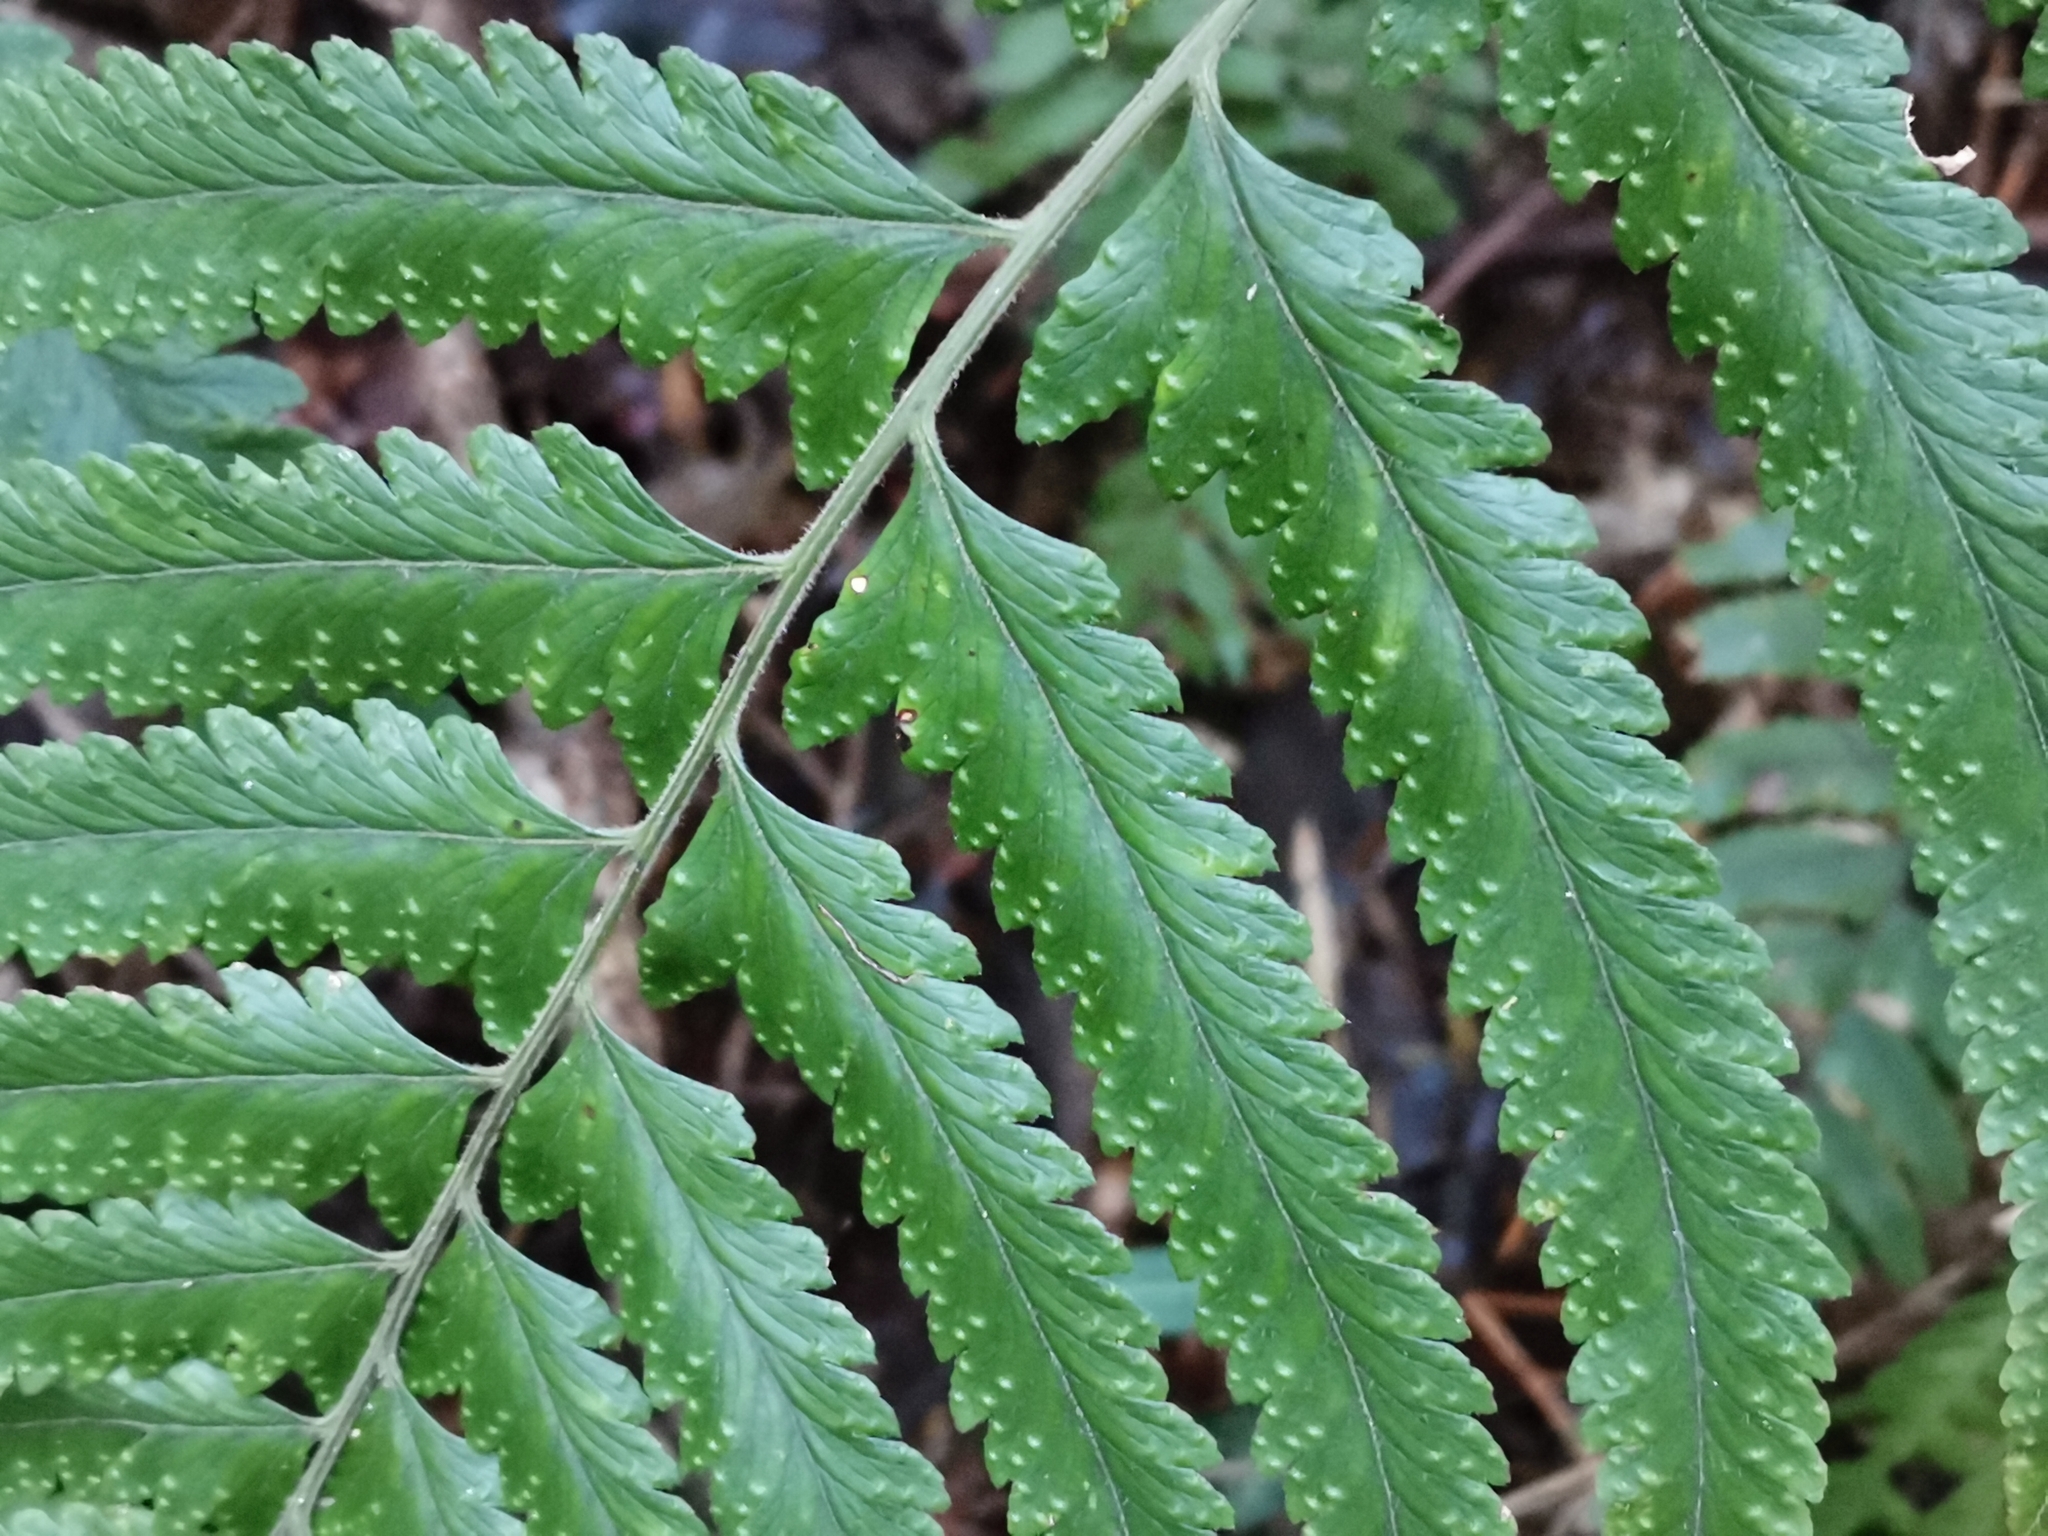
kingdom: Plantae
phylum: Tracheophyta
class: Polypodiopsida
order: Polypodiales
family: Dennstaedtiaceae
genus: Microlepia
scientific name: Microlepia marginata
